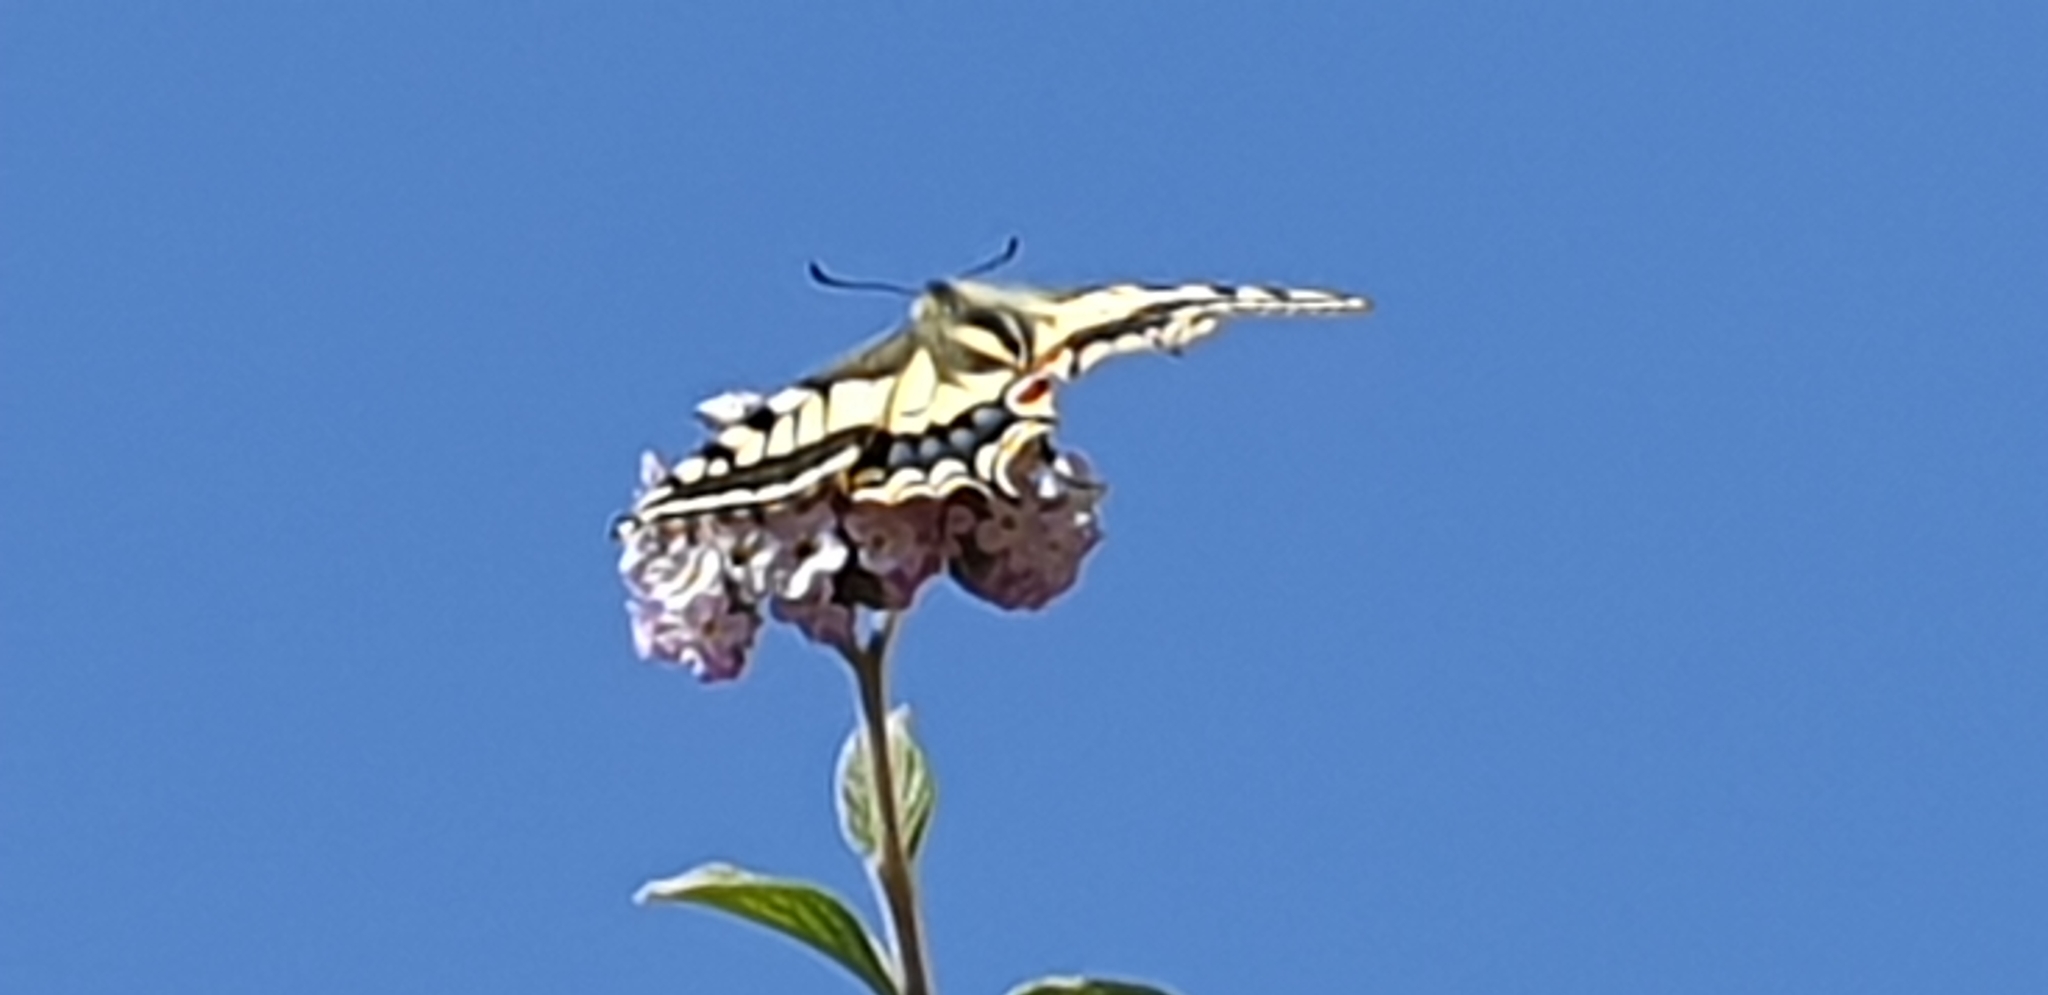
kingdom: Animalia
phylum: Arthropoda
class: Insecta
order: Lepidoptera
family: Papilionidae
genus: Papilio
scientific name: Papilio machaon
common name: Swallowtail
